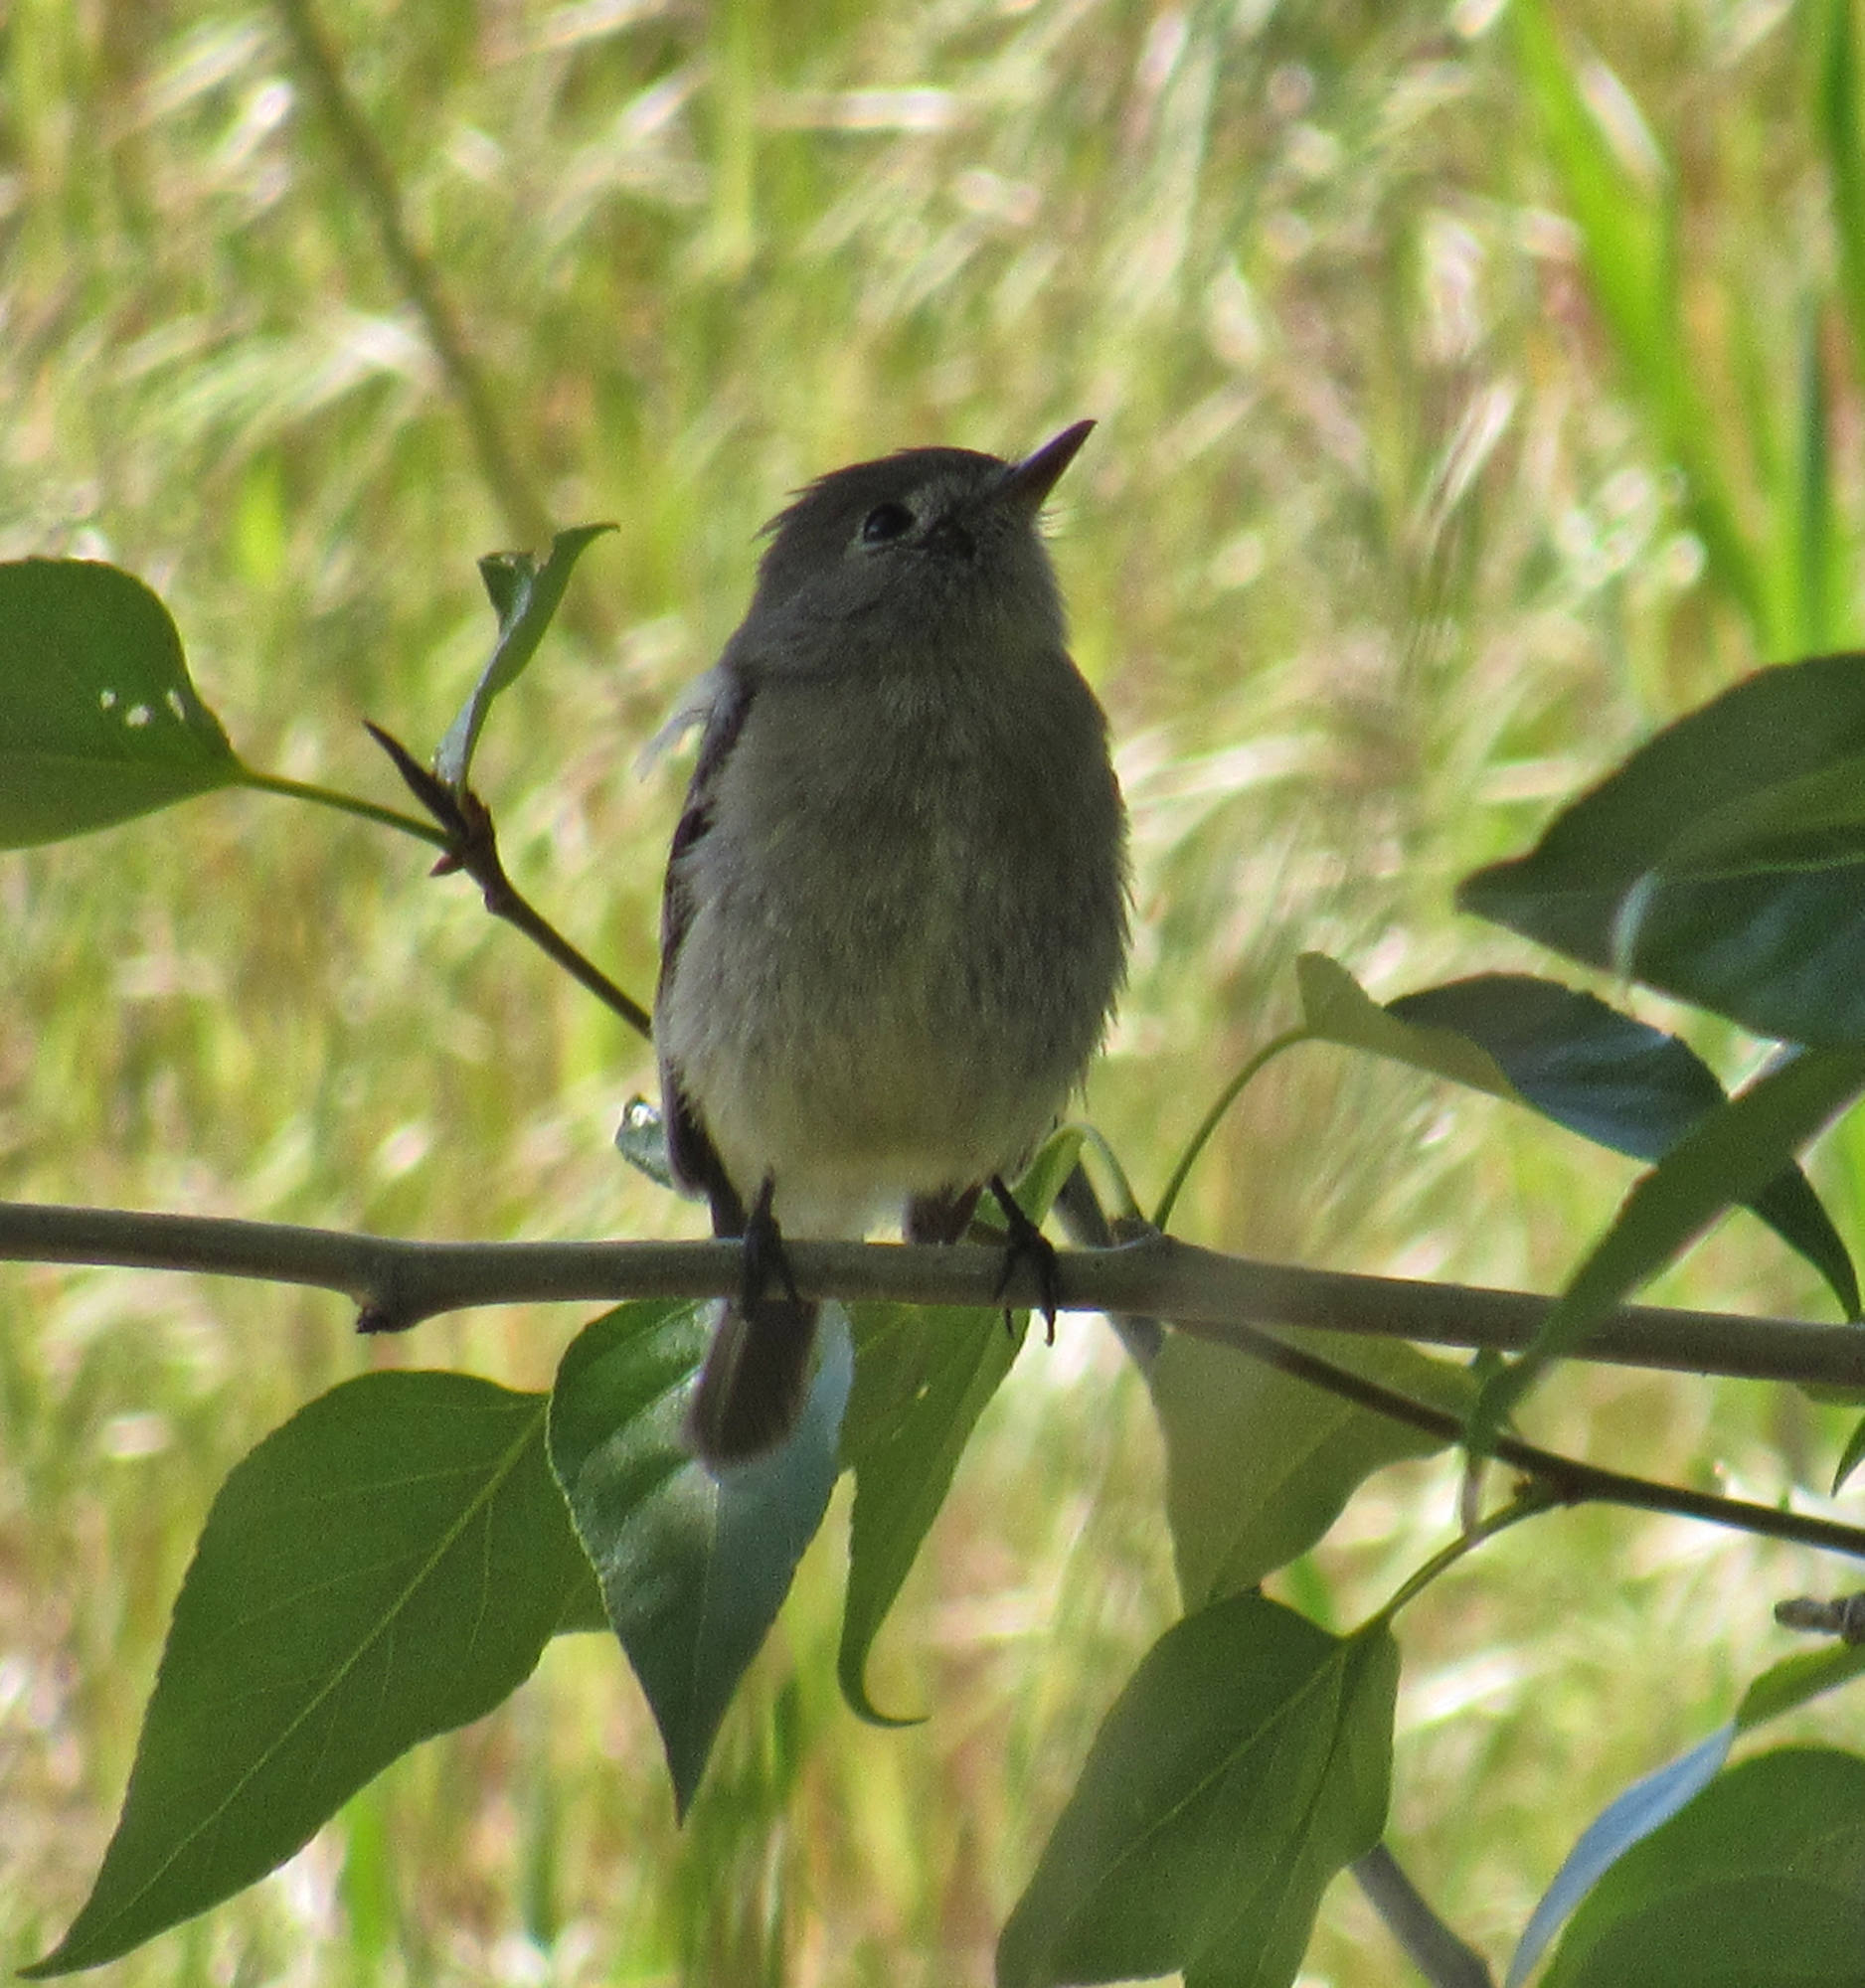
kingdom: Animalia
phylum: Chordata
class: Aves
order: Passeriformes
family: Tyrannidae
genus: Empidonax
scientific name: Empidonax minimus
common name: Least flycatcher
